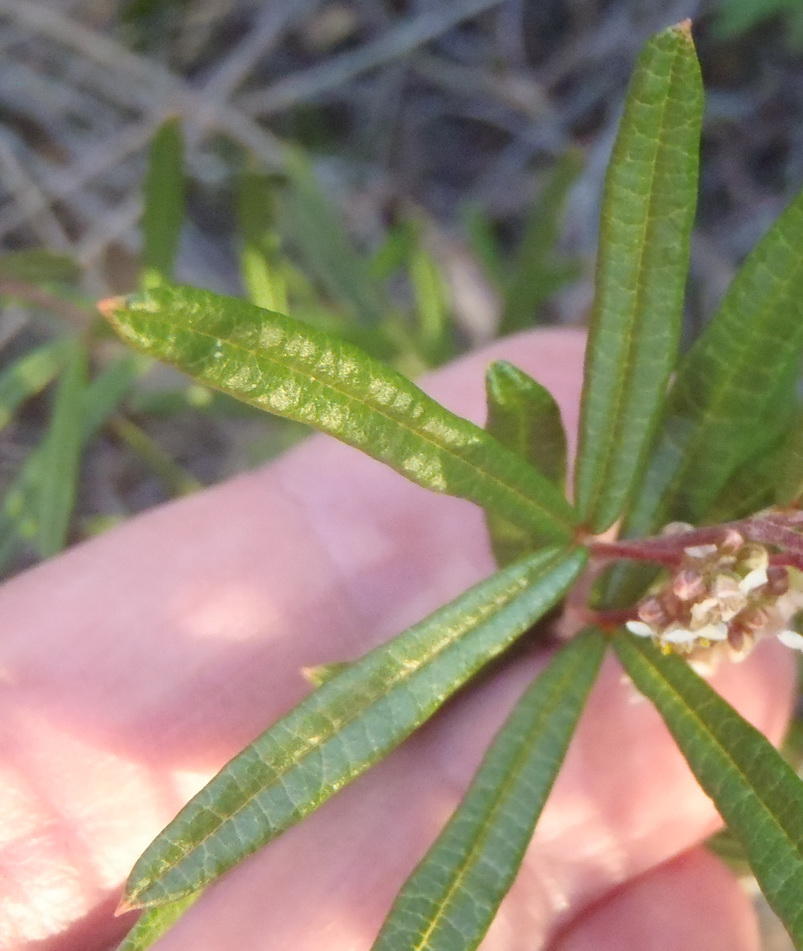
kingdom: Plantae
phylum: Tracheophyta
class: Magnoliopsida
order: Sapindales
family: Anacardiaceae
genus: Searsia
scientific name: Searsia rosmarinifolia
